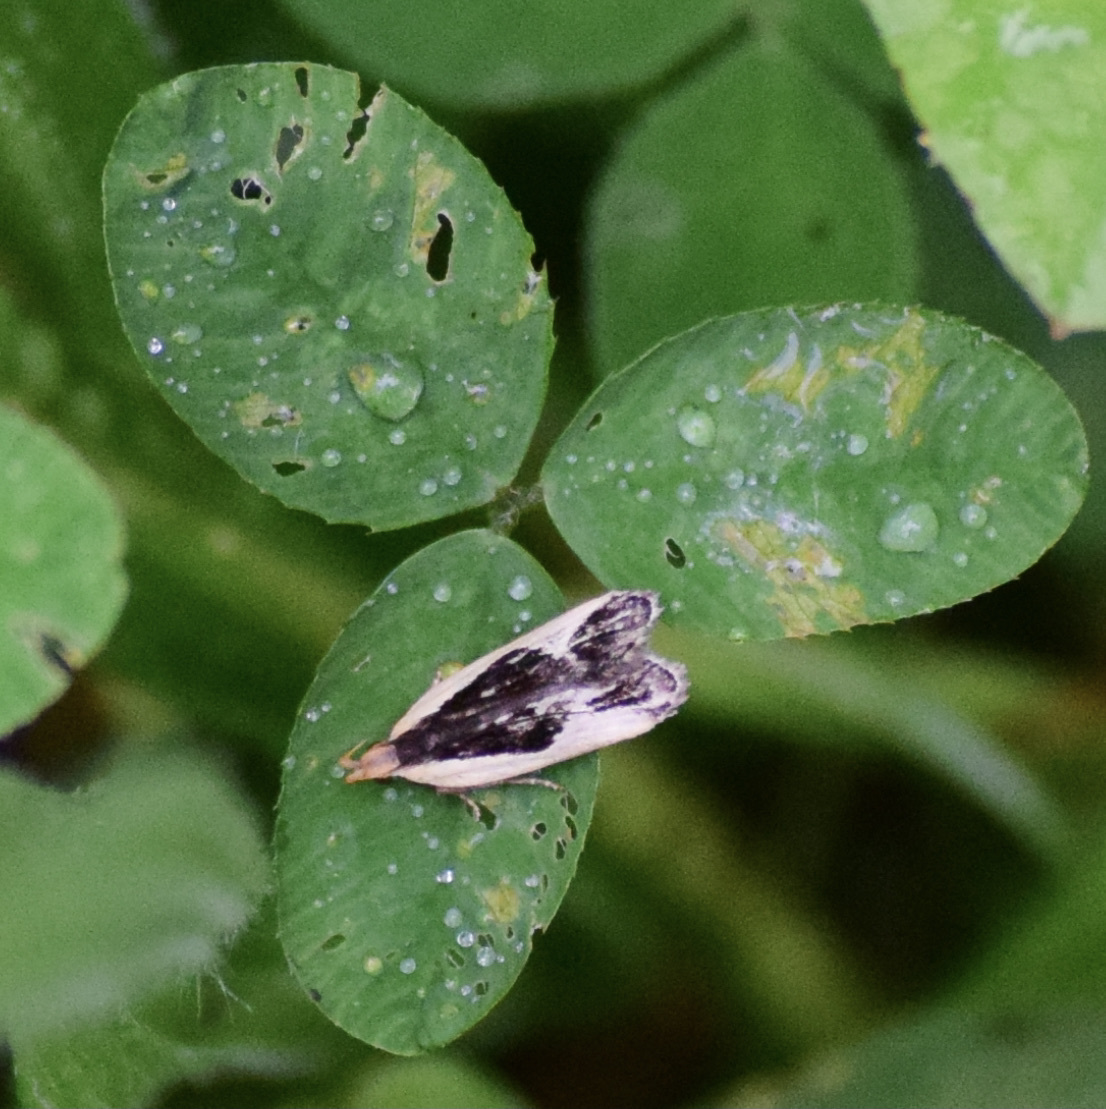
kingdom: Animalia
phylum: Arthropoda
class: Insecta
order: Lepidoptera
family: Gelechiidae
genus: Dichomeris
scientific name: Dichomeris flavocostella
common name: Cream-edged dichomeris moth
